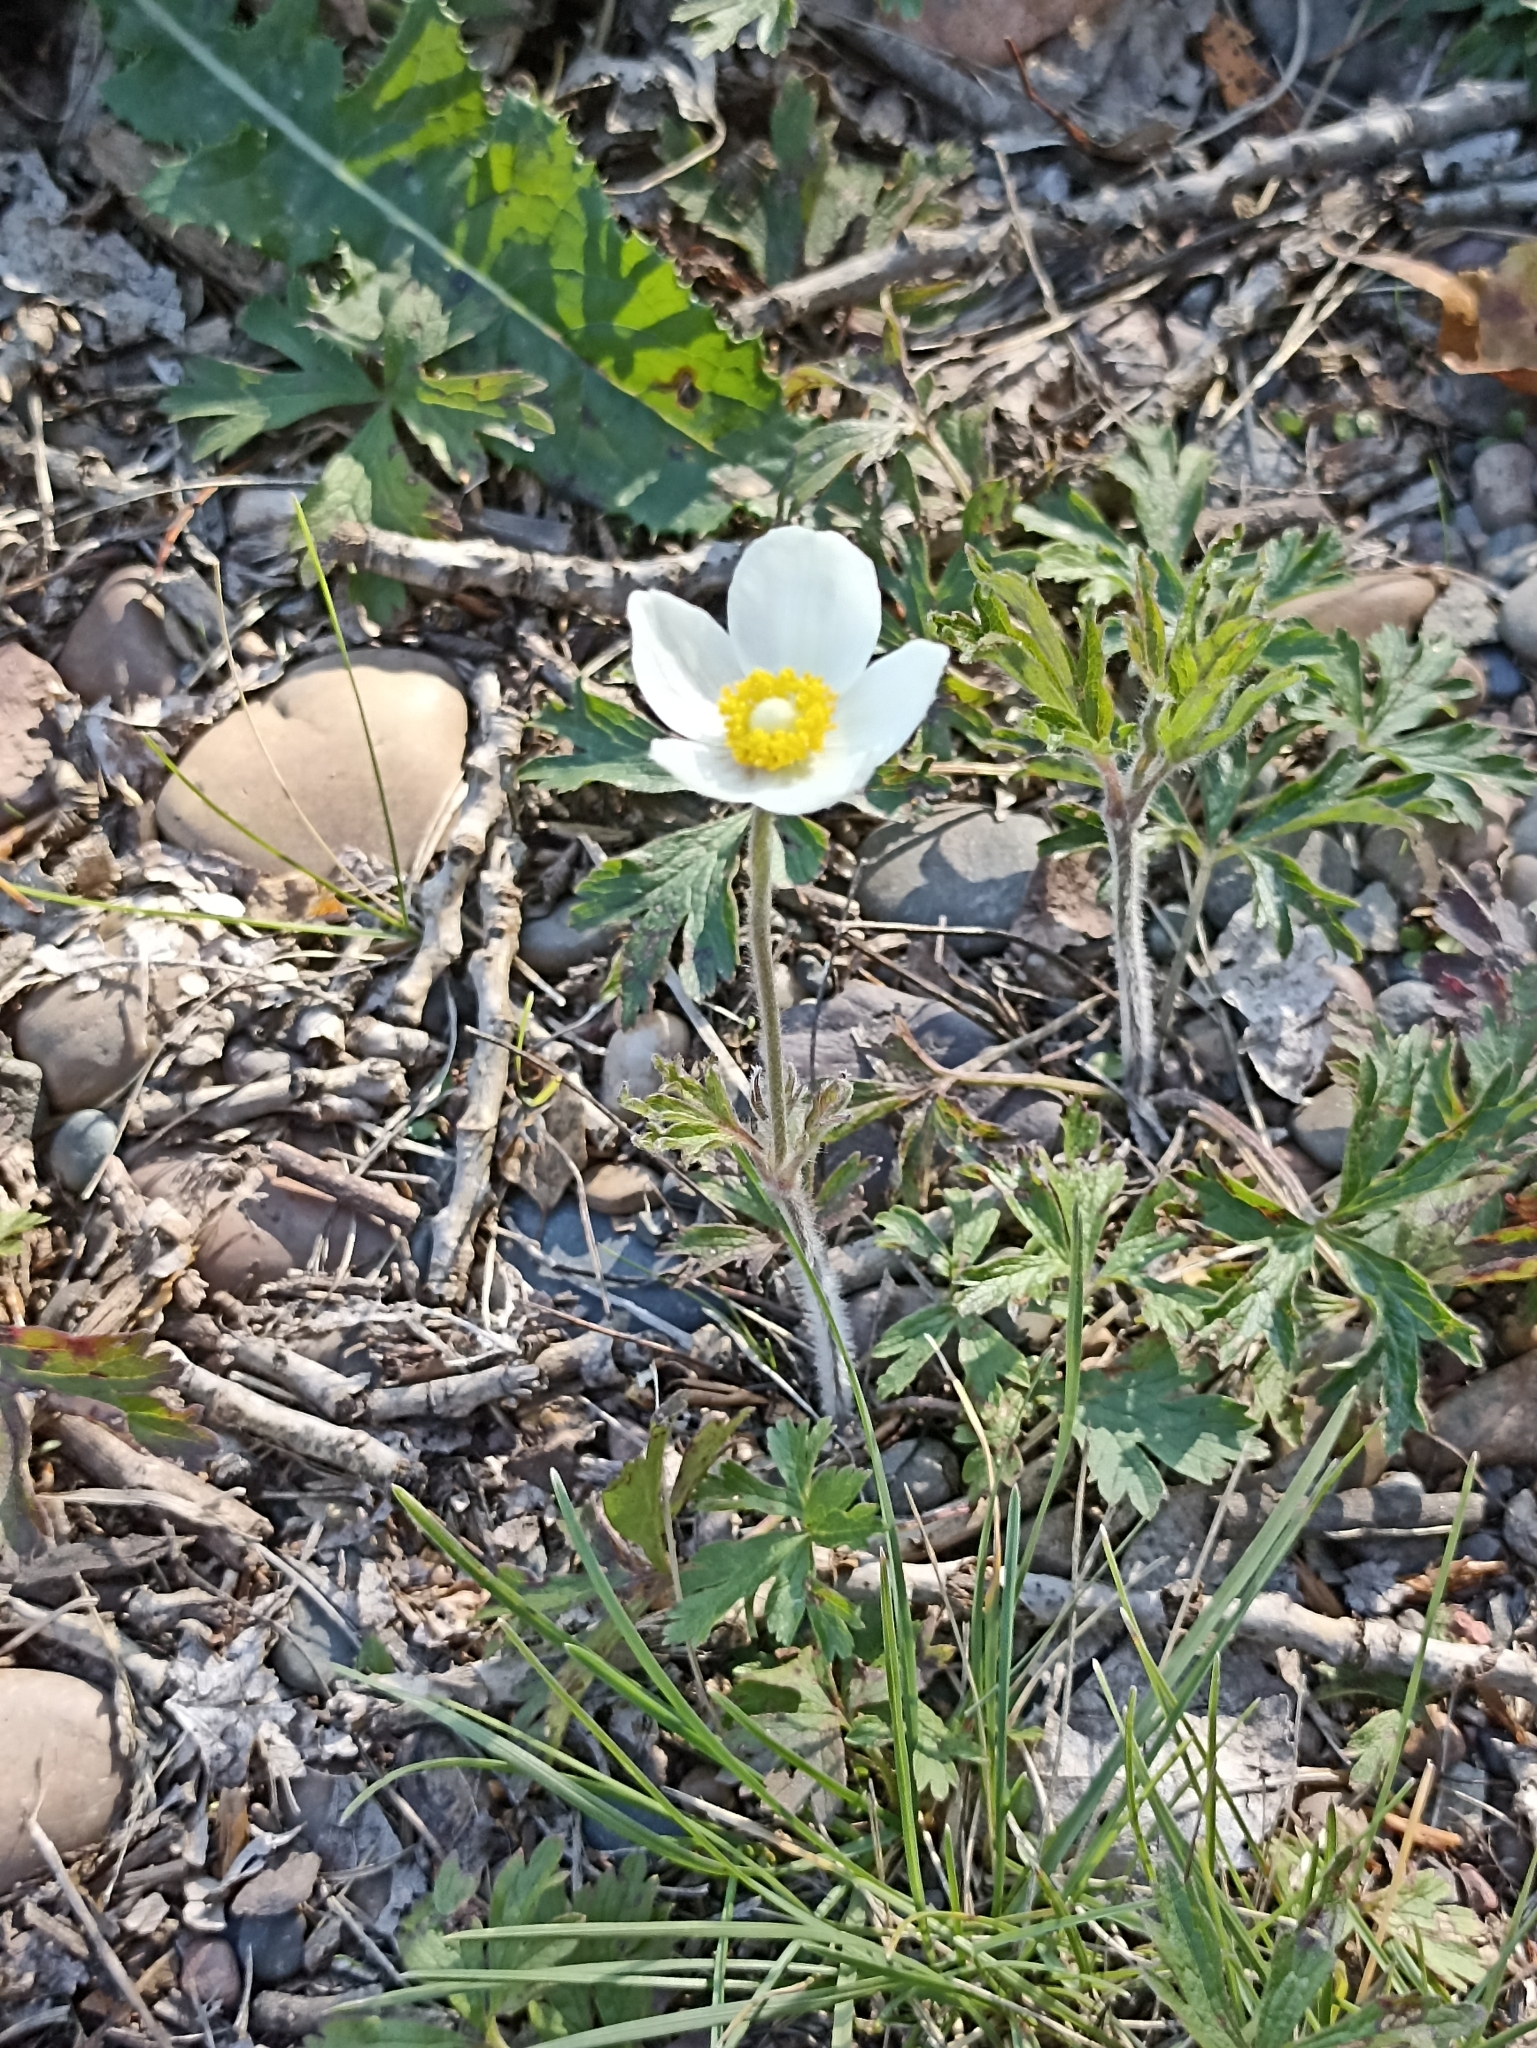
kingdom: Plantae
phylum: Tracheophyta
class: Magnoliopsida
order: Ranunculales
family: Ranunculaceae
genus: Anemone
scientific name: Anemone sylvestris
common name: Snowdrop anemone
